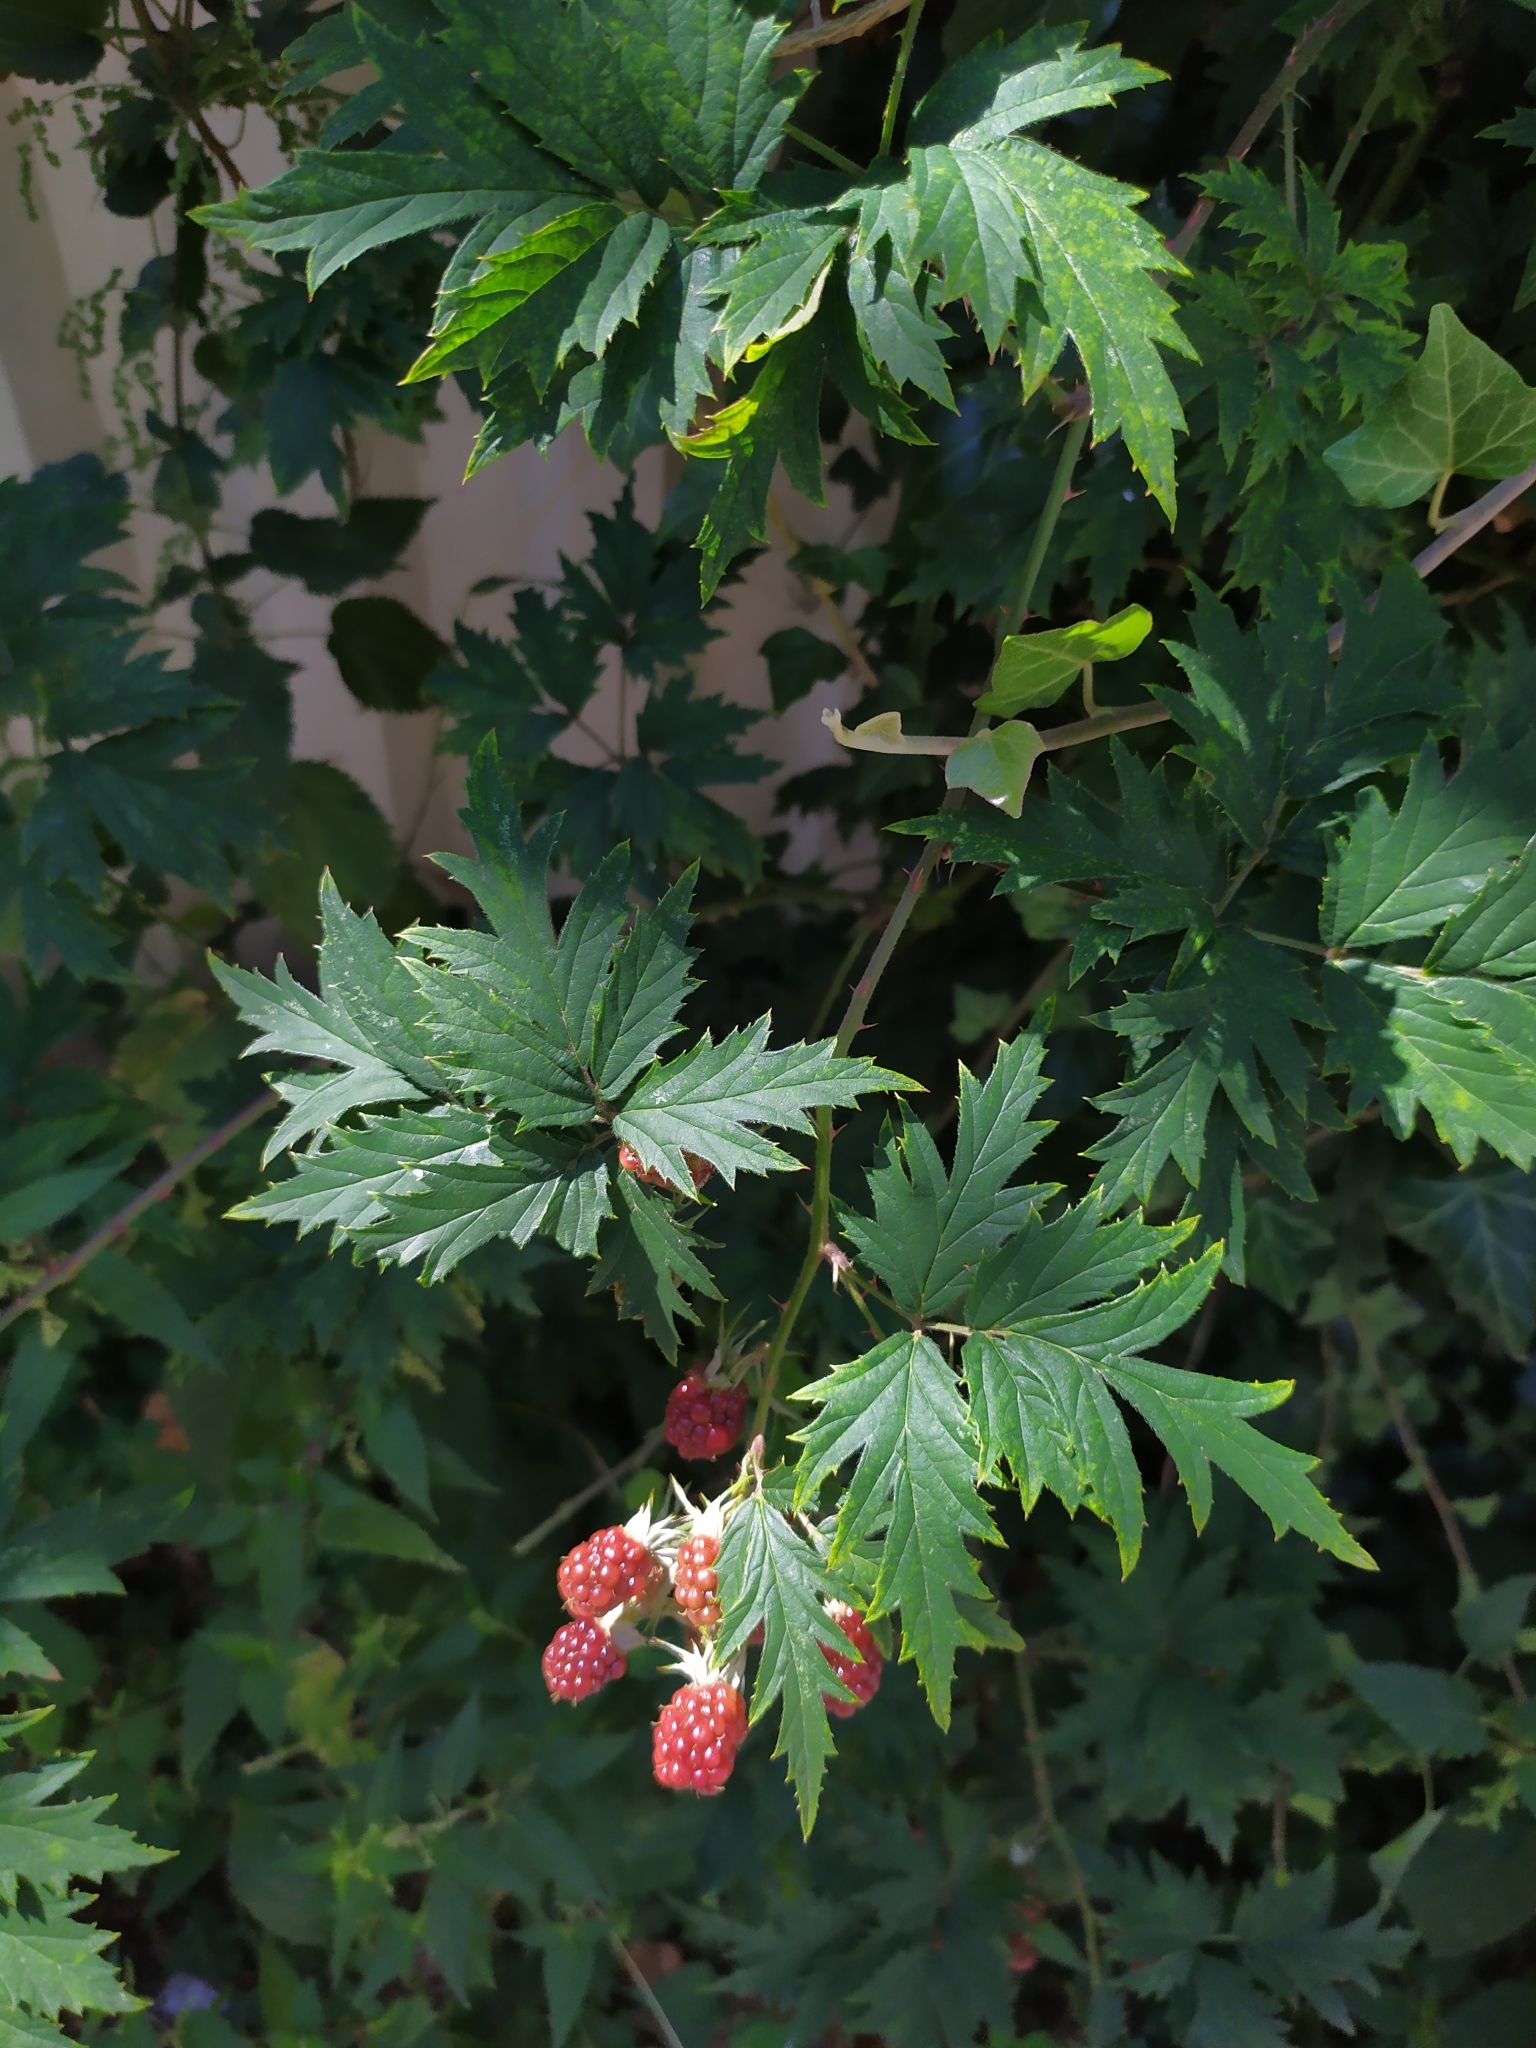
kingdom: Plantae
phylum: Tracheophyta
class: Magnoliopsida
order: Rosales
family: Rosaceae
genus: Rubus
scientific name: Rubus laciniatus
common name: Evergreen blackberry
